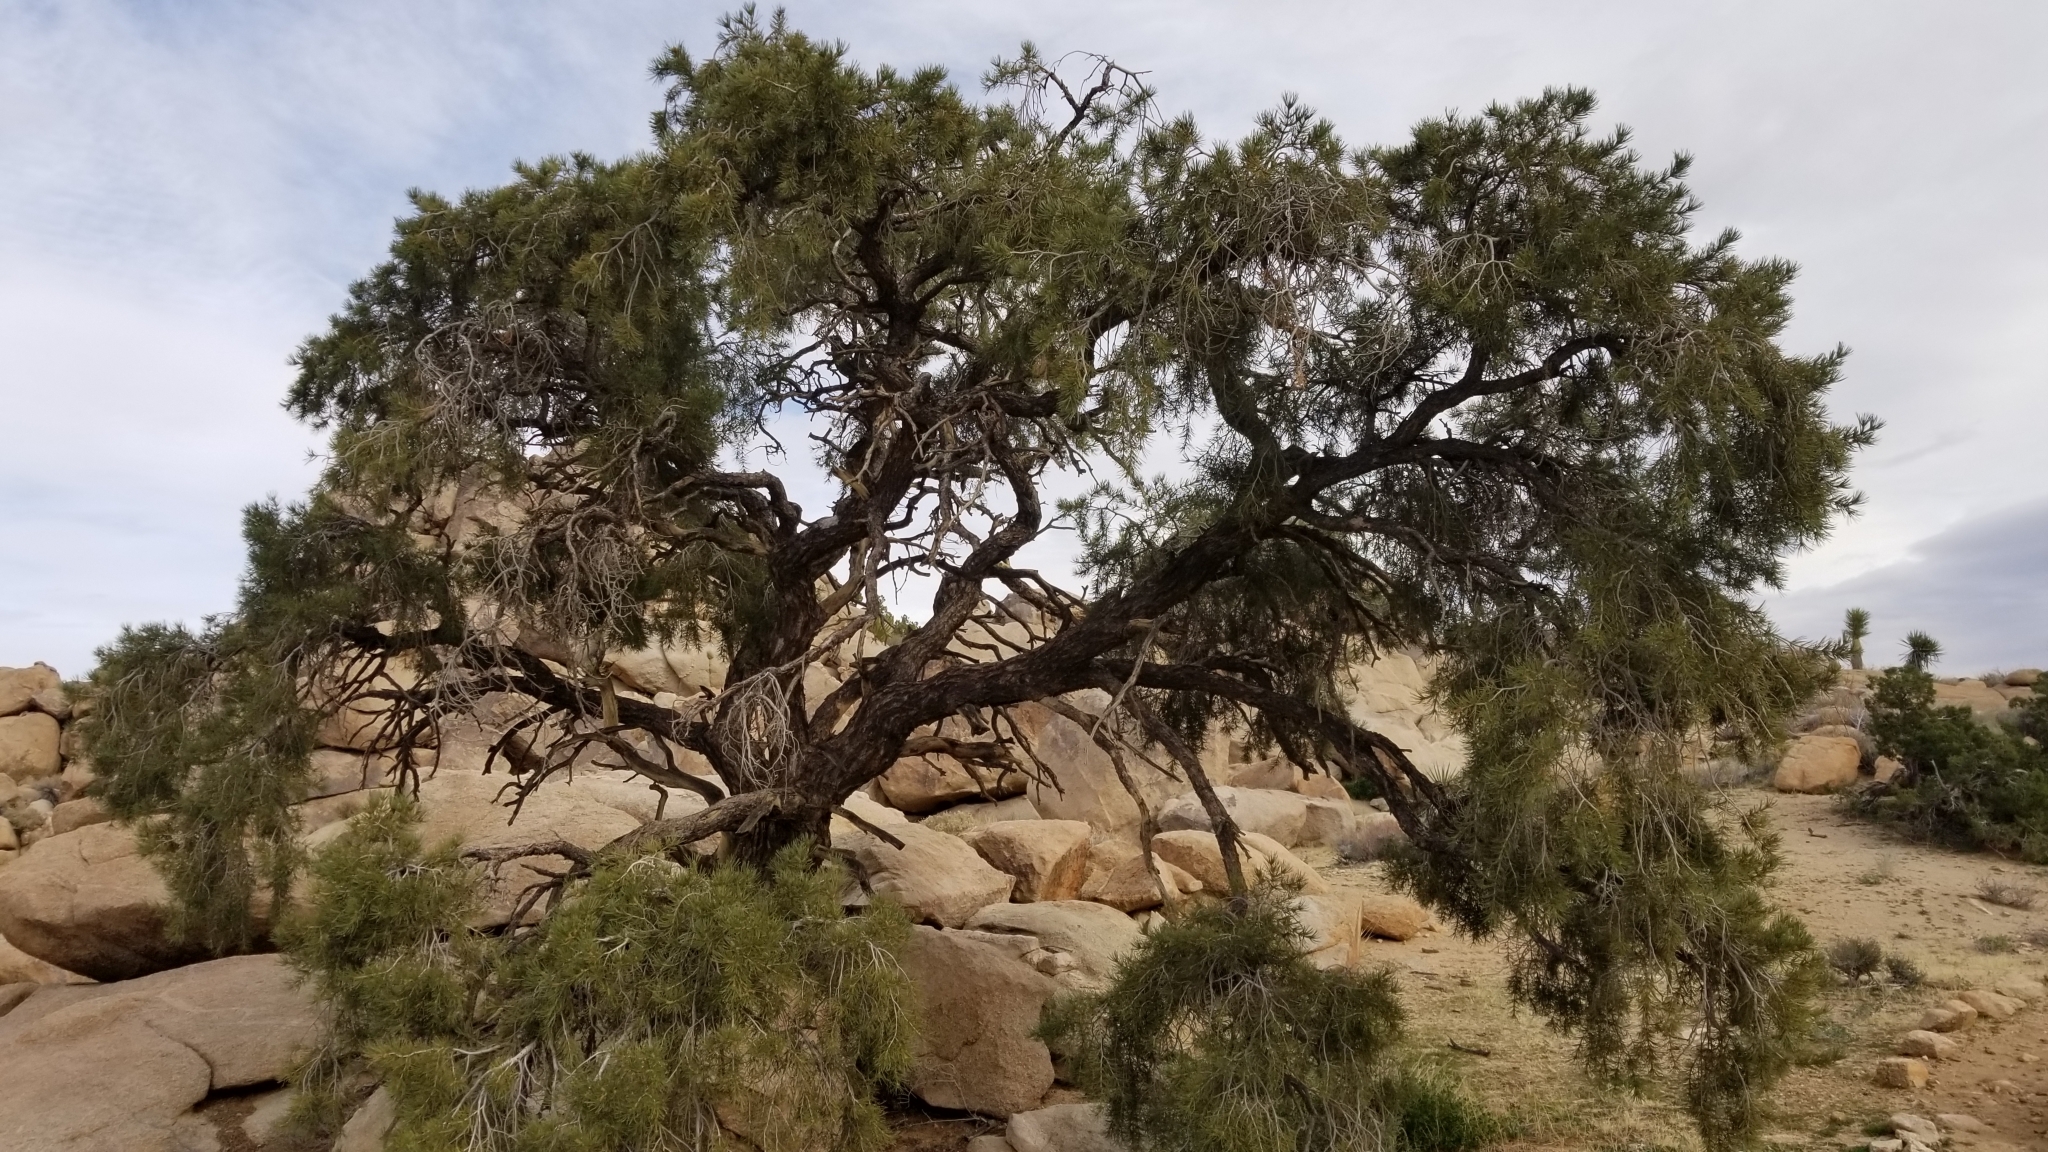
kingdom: Plantae
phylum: Tracheophyta
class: Pinopsida
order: Pinales
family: Pinaceae
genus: Pinus
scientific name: Pinus monophylla
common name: One-leaved nut pine
